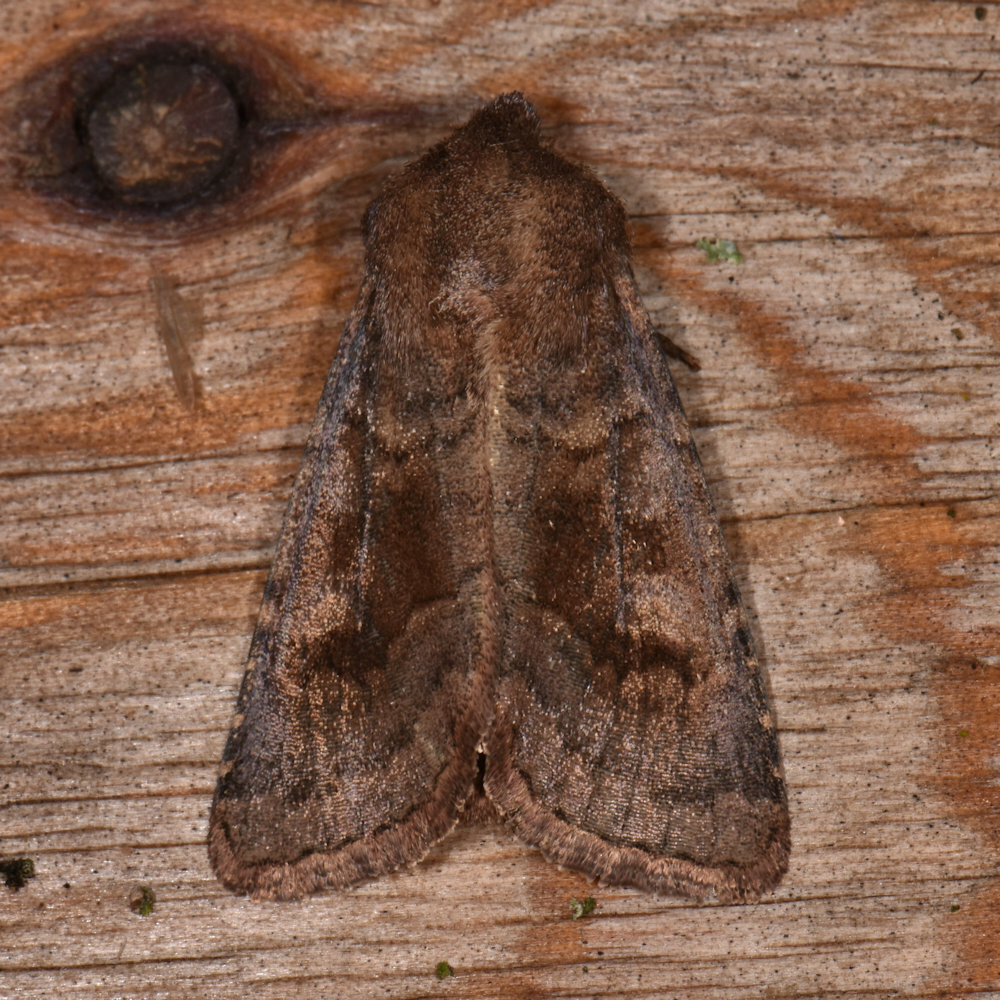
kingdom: Animalia
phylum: Arthropoda
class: Insecta
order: Lepidoptera
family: Noctuidae
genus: Nephelodes
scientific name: Nephelodes minians
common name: Bronzed cutworm
